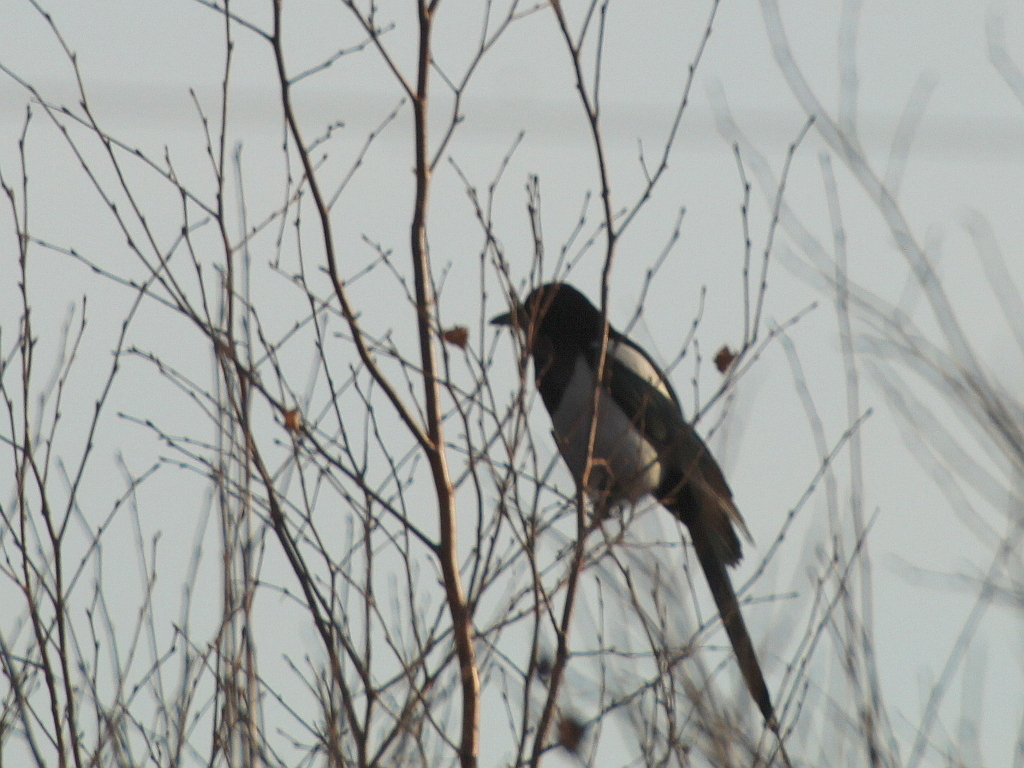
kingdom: Animalia
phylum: Chordata
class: Aves
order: Passeriformes
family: Corvidae
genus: Pica
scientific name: Pica pica
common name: Eurasian magpie
